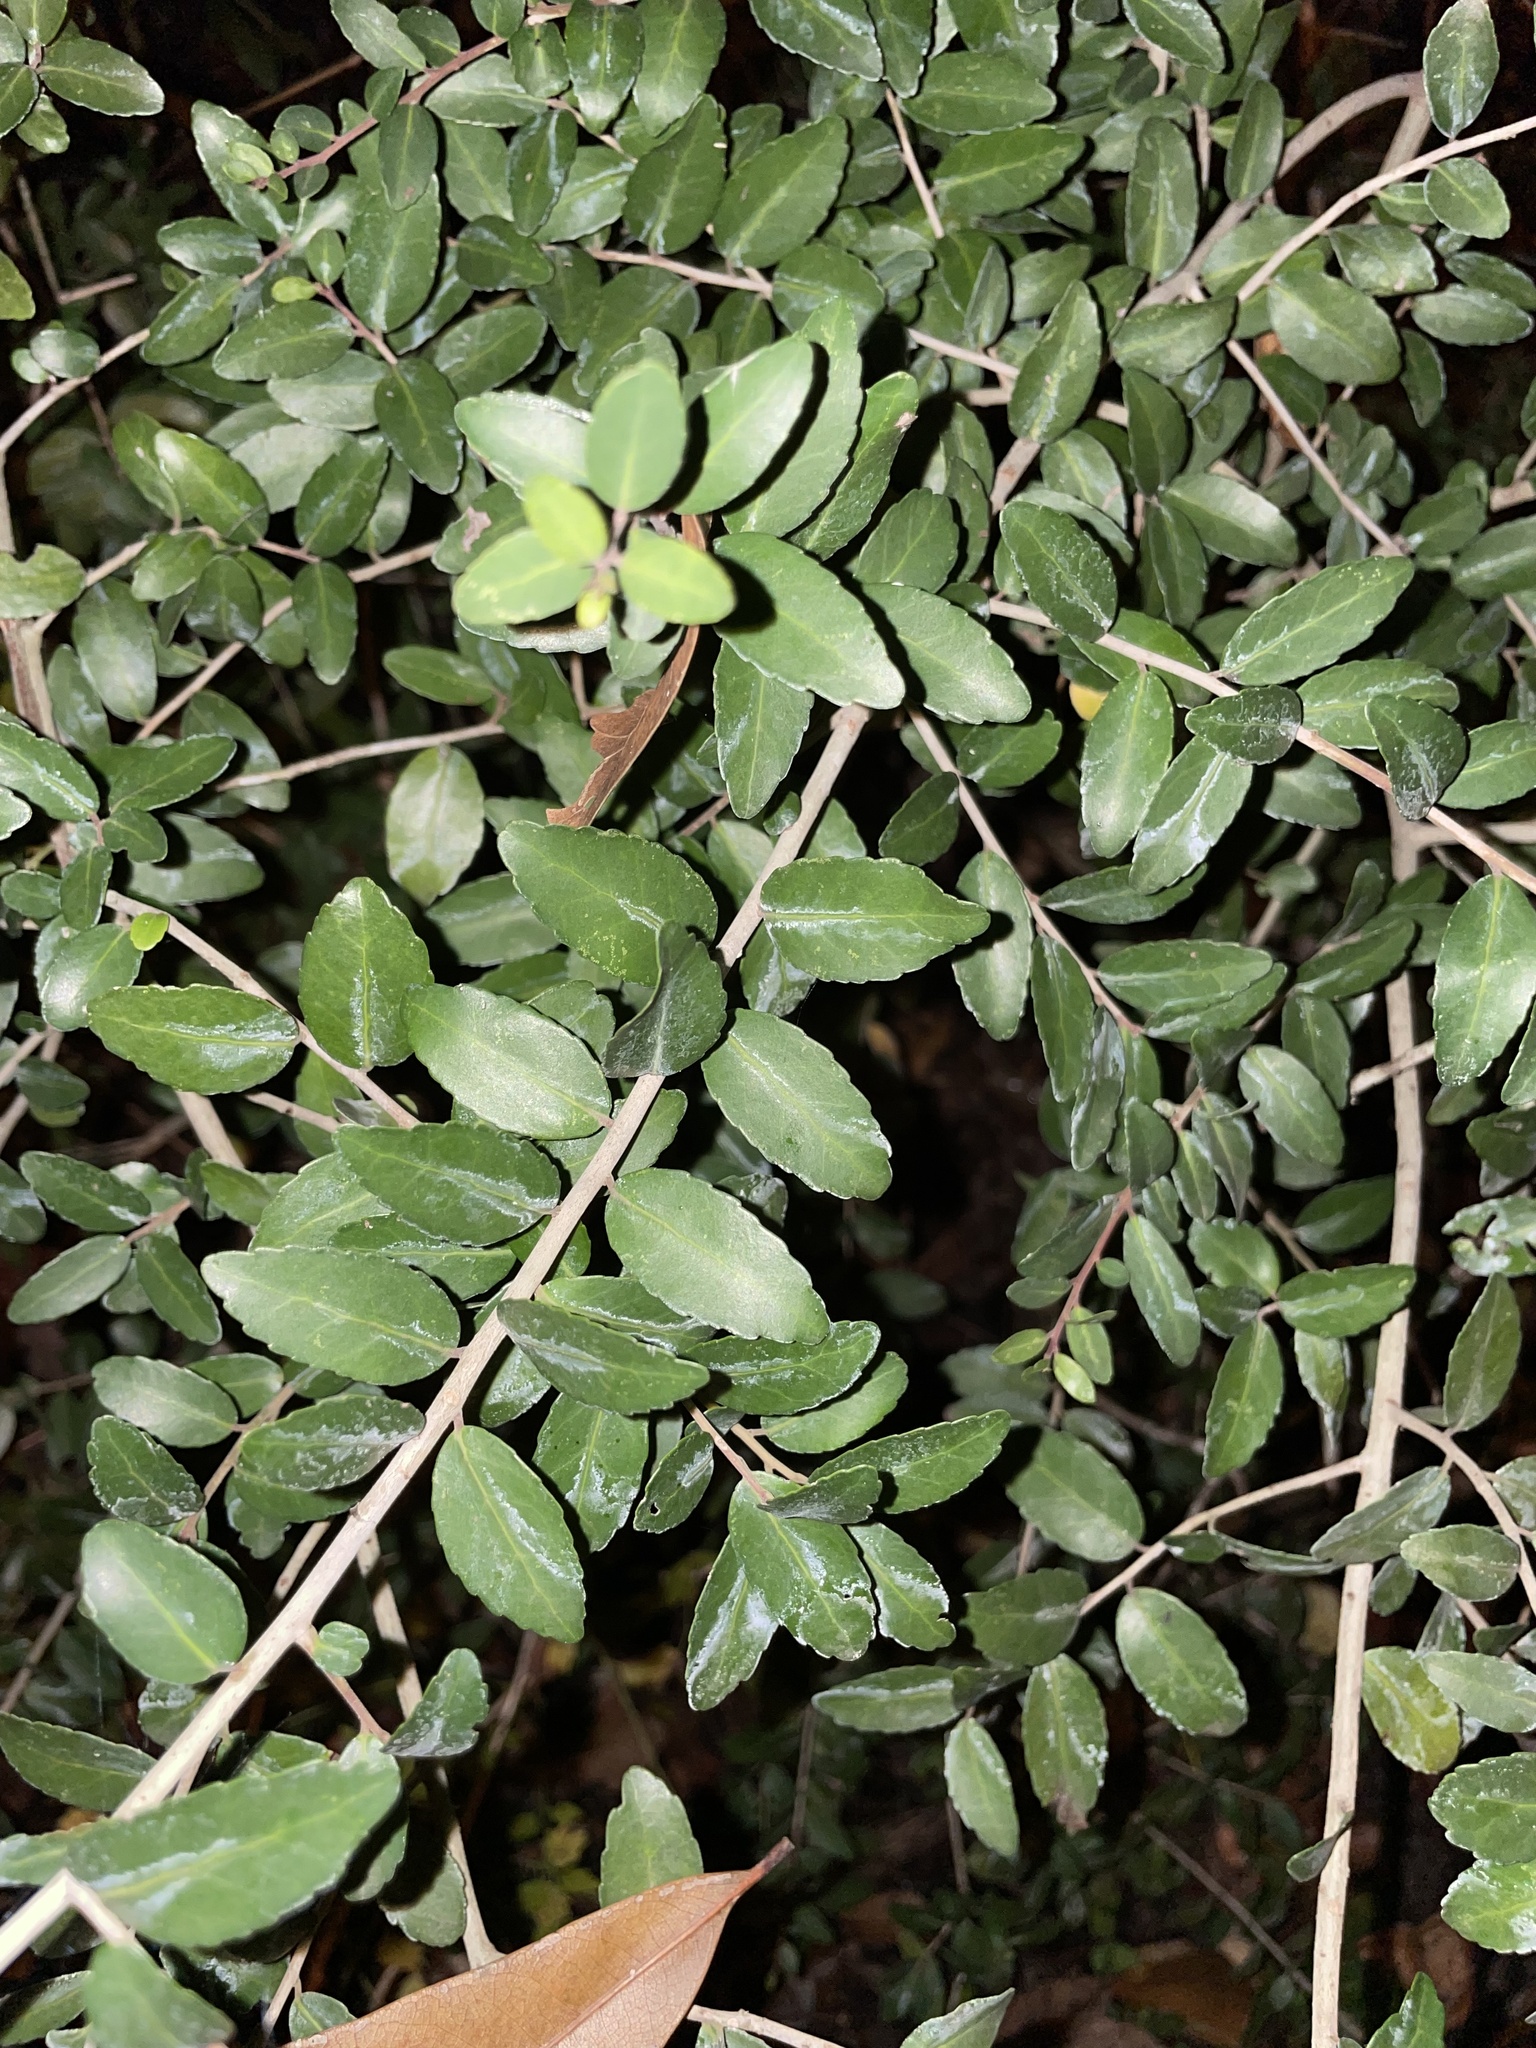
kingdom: Plantae
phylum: Tracheophyta
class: Magnoliopsida
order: Aquifoliales
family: Aquifoliaceae
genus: Ilex
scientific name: Ilex vomitoria
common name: Yaupon holly
